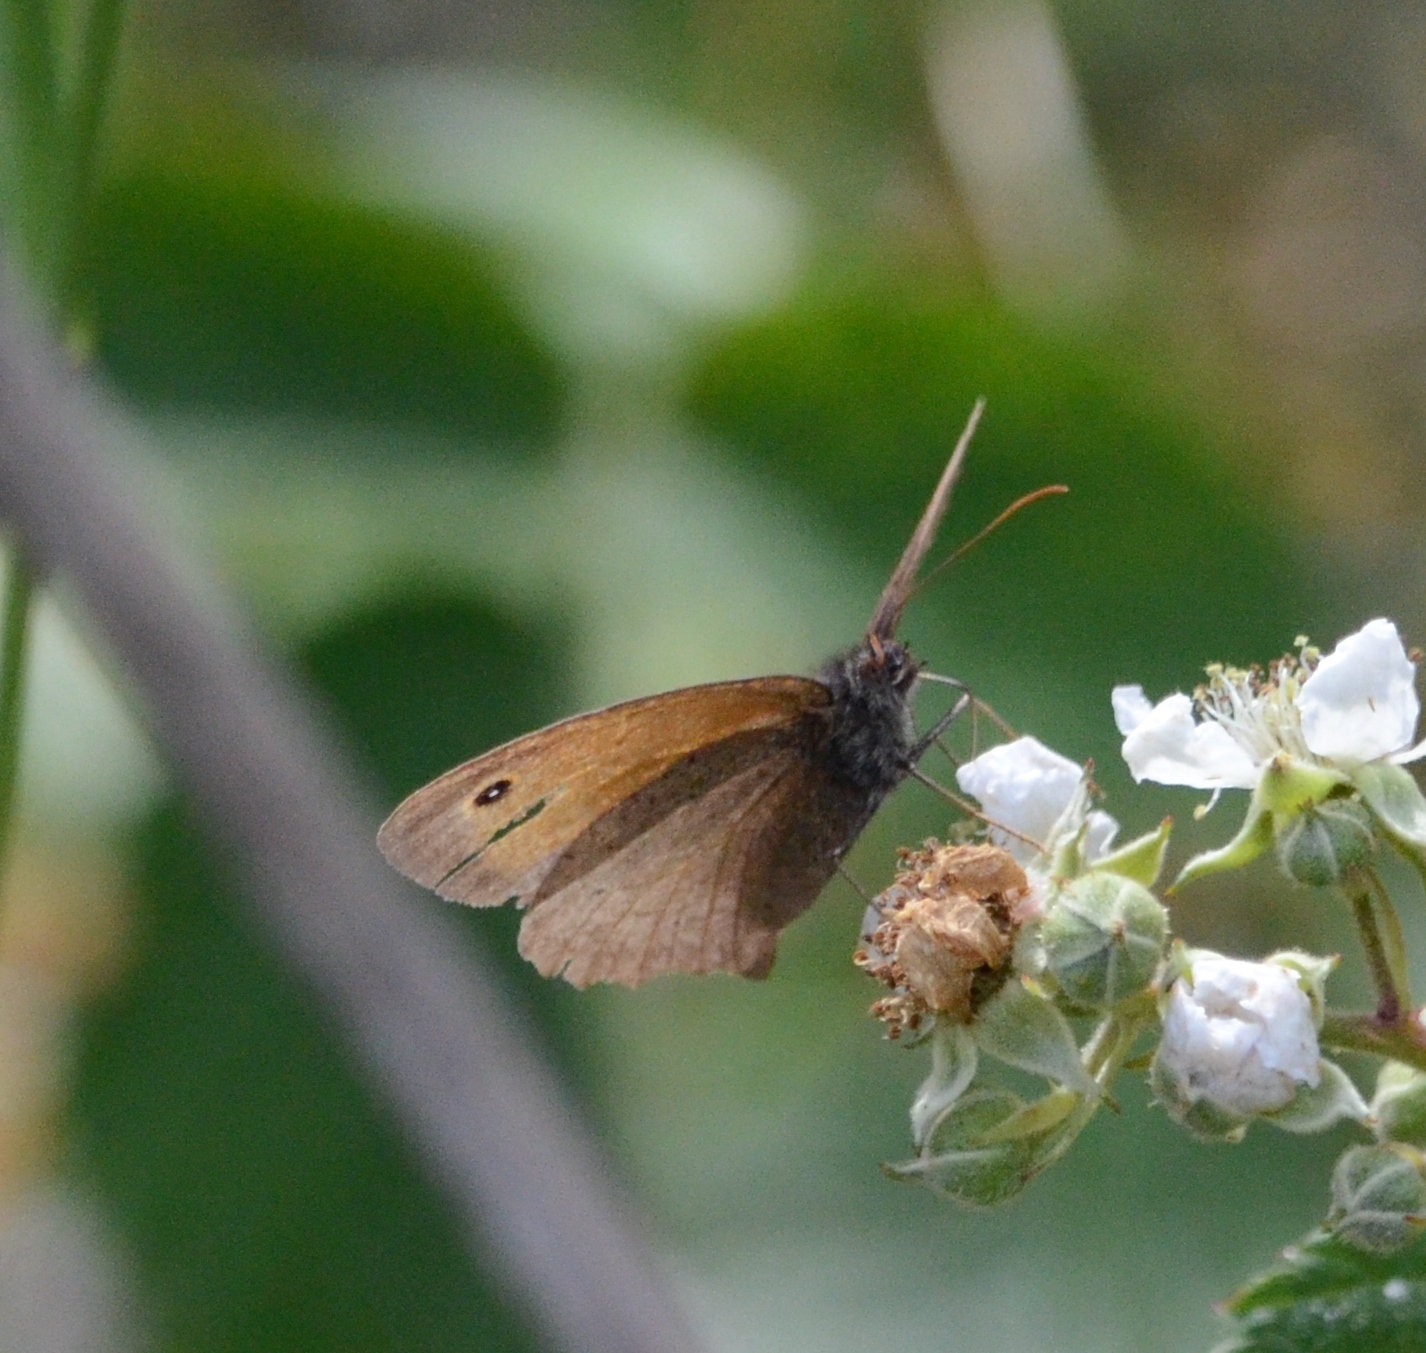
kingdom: Animalia
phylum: Arthropoda
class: Insecta
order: Lepidoptera
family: Nymphalidae
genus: Maniola
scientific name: Maniola jurtina
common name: Meadow brown
